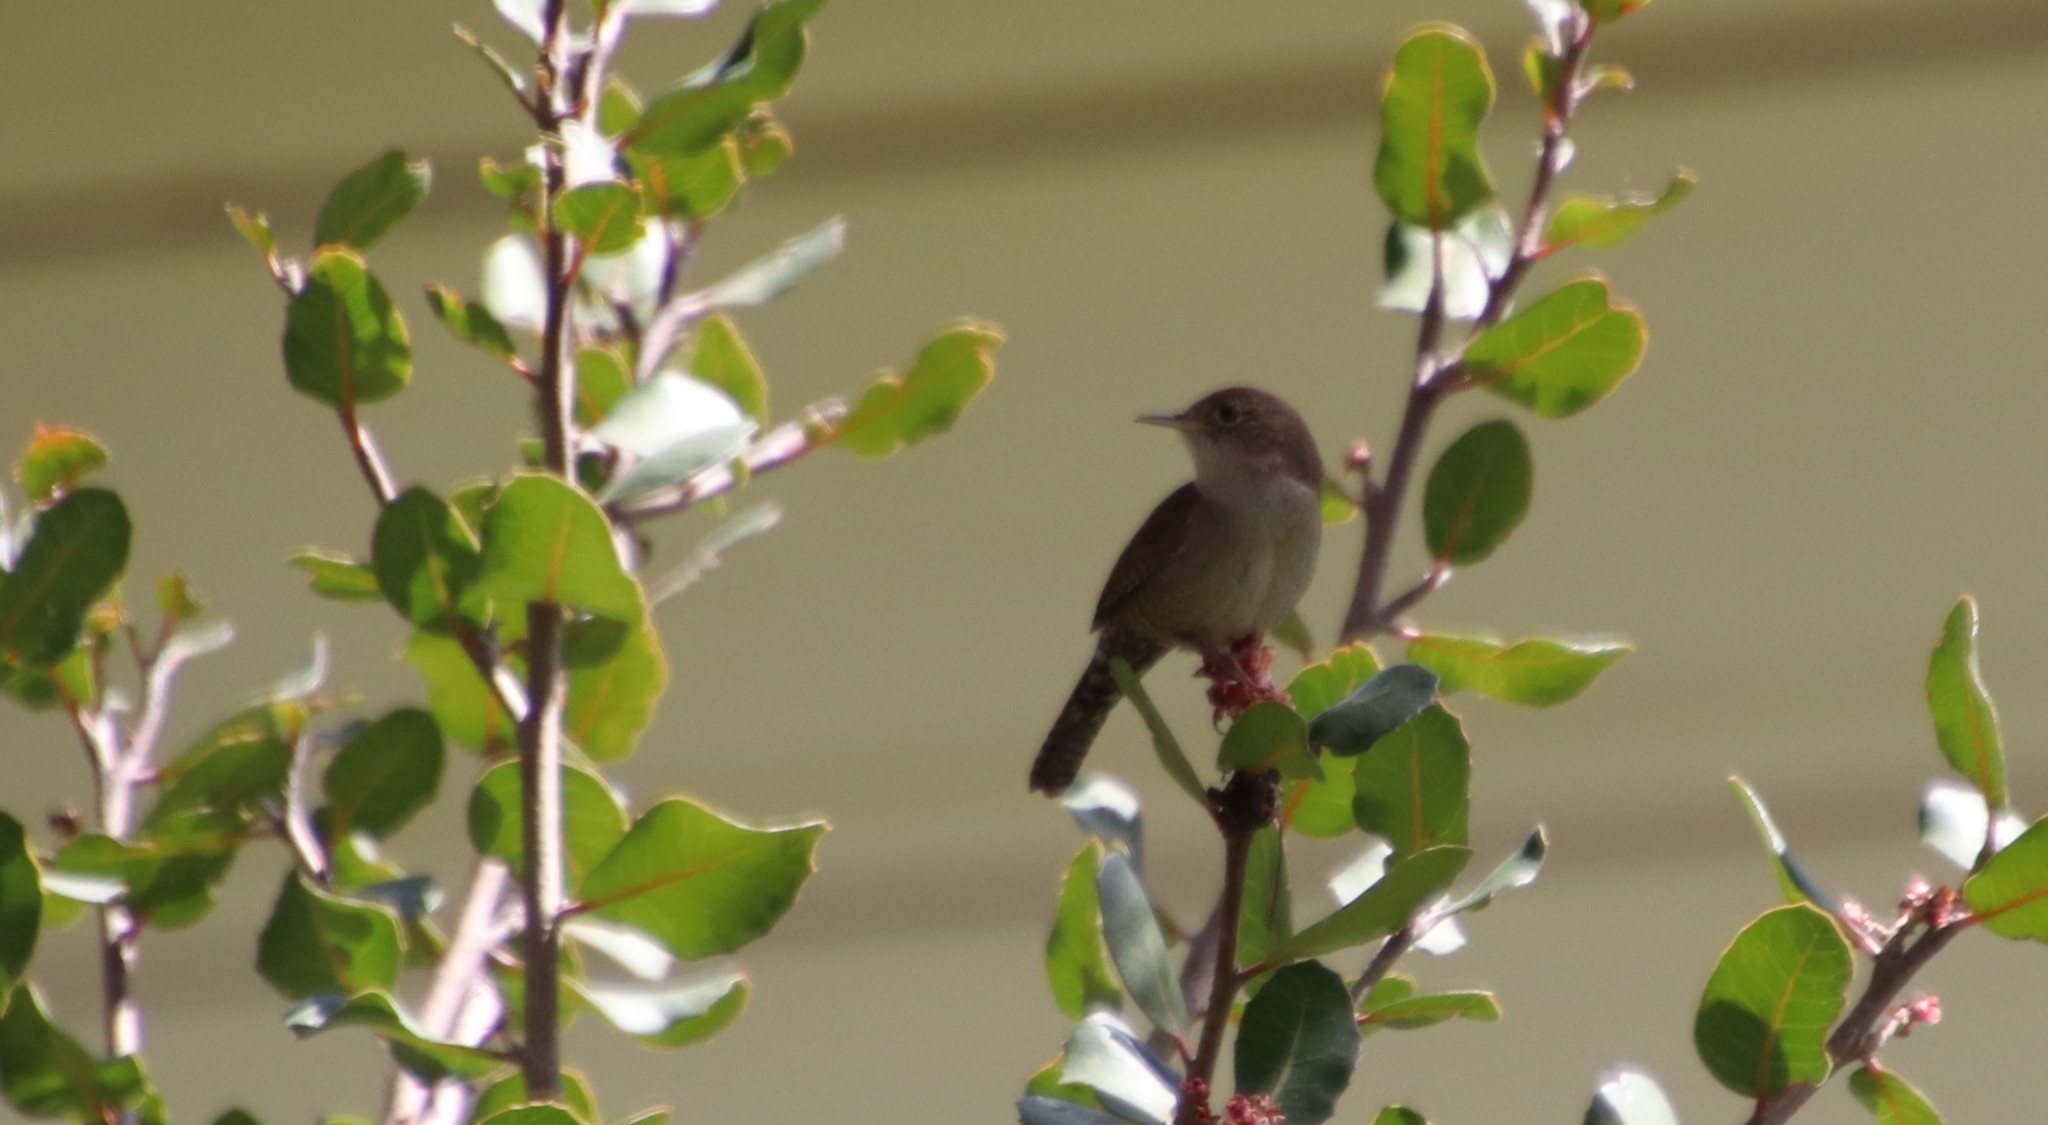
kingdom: Animalia
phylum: Chordata
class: Aves
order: Passeriformes
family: Troglodytidae
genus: Troglodytes
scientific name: Troglodytes aedon
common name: House wren
